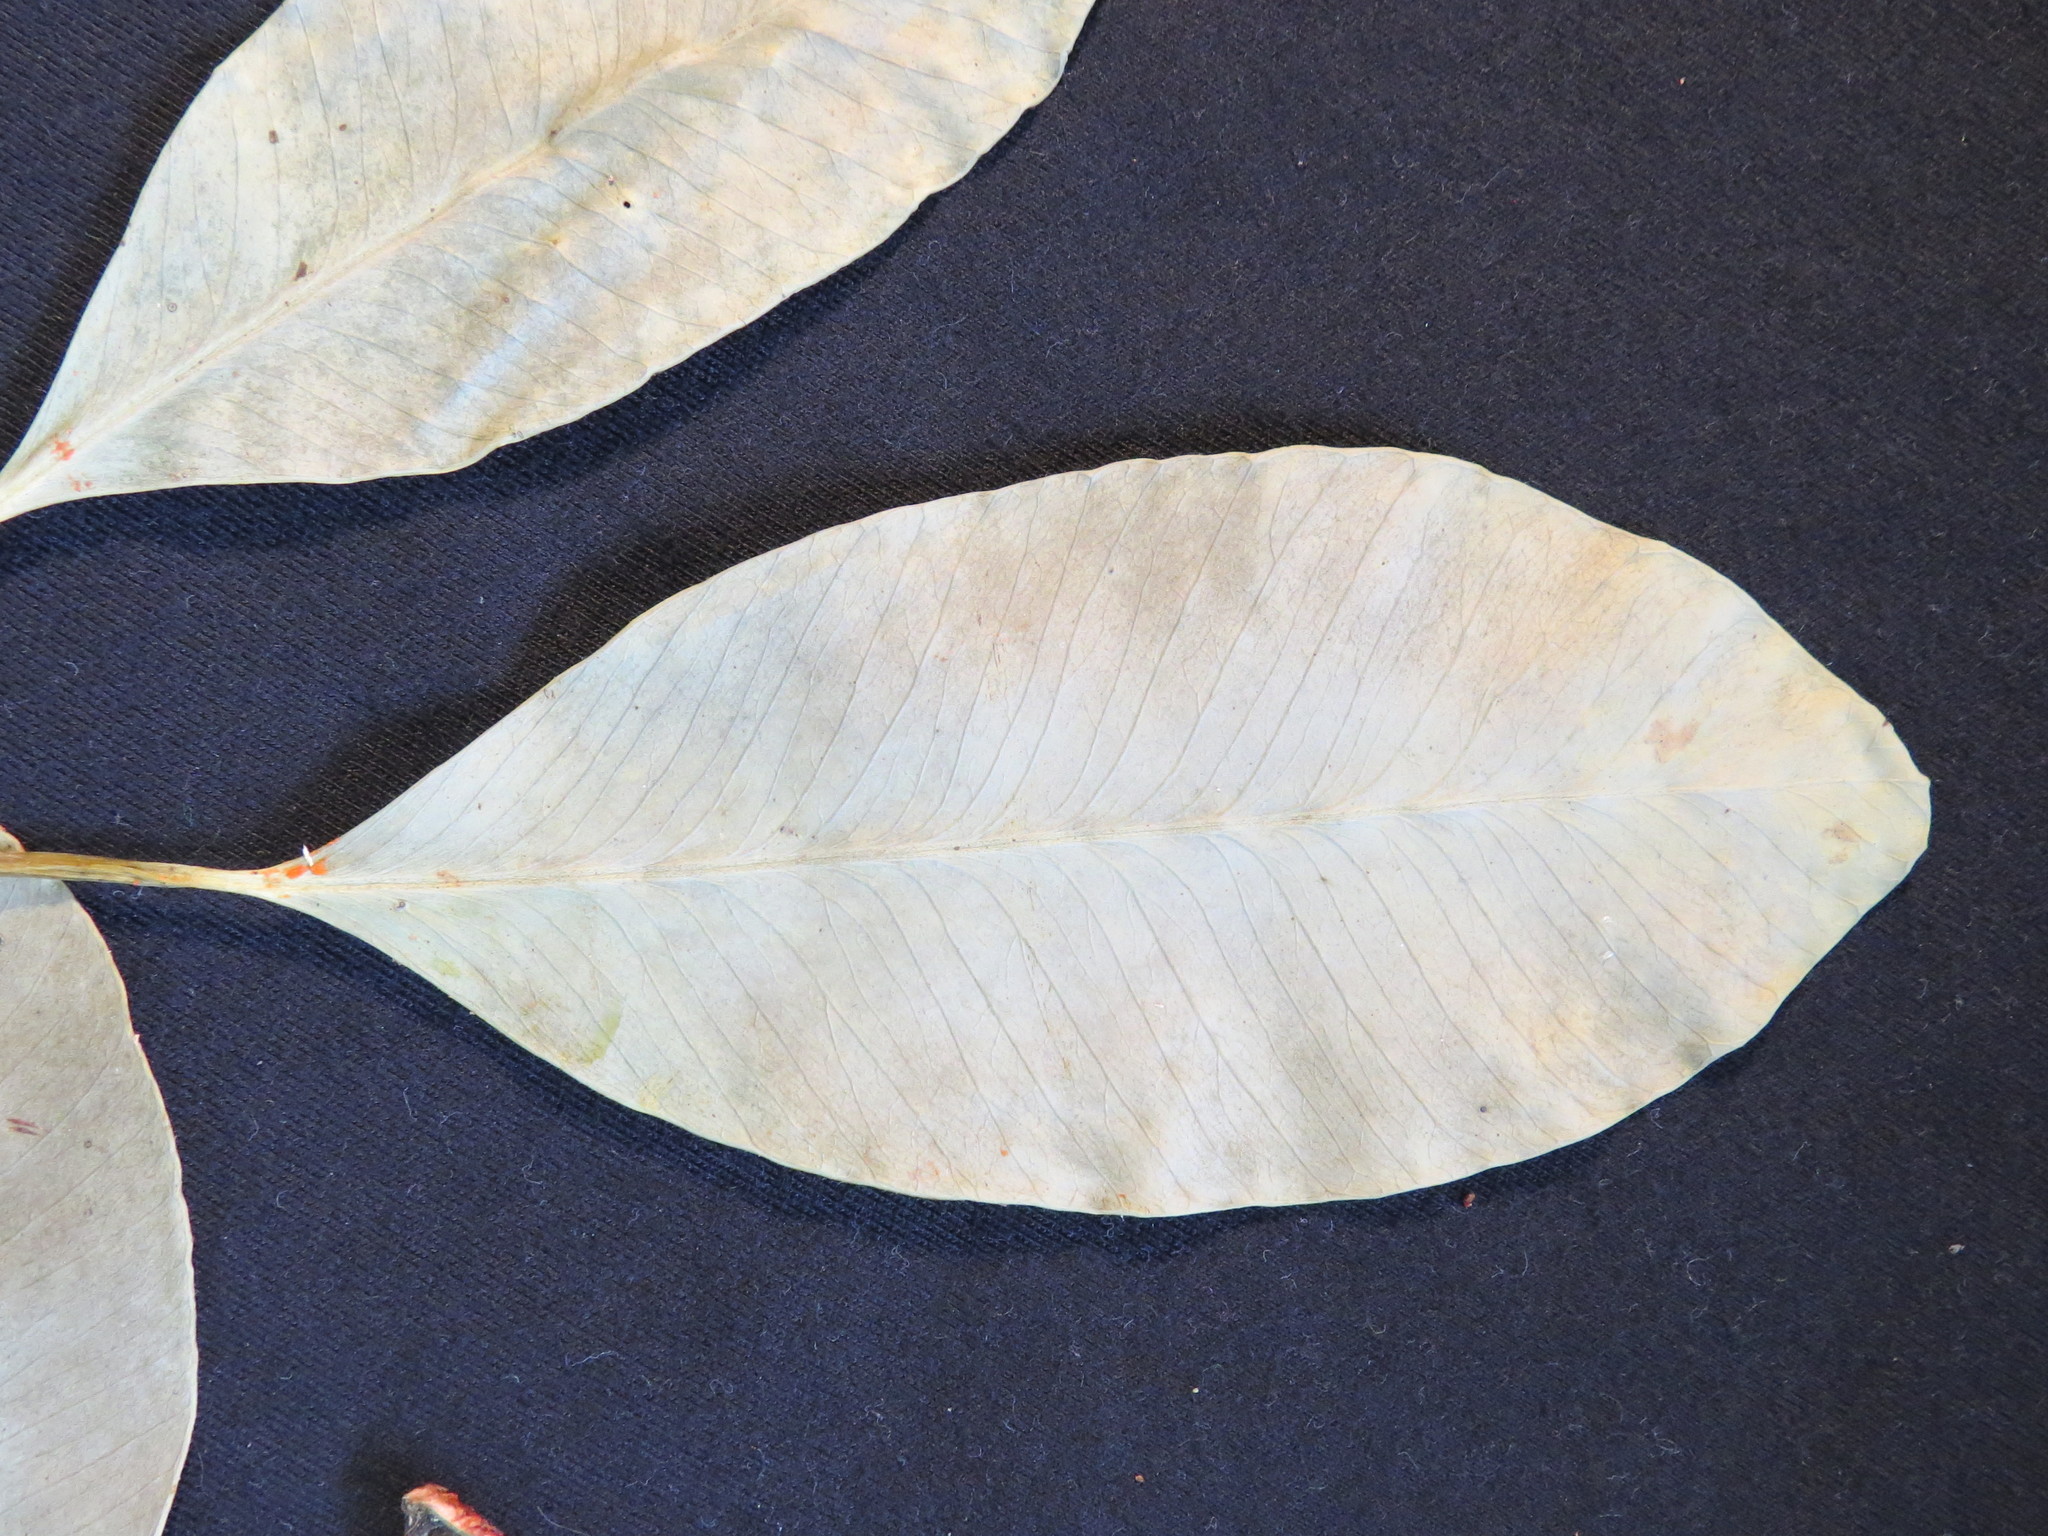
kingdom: Plantae
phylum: Tracheophyta
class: Magnoliopsida
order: Malpighiales
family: Clusiaceae
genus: Tovomita
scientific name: Tovomita leucantha
